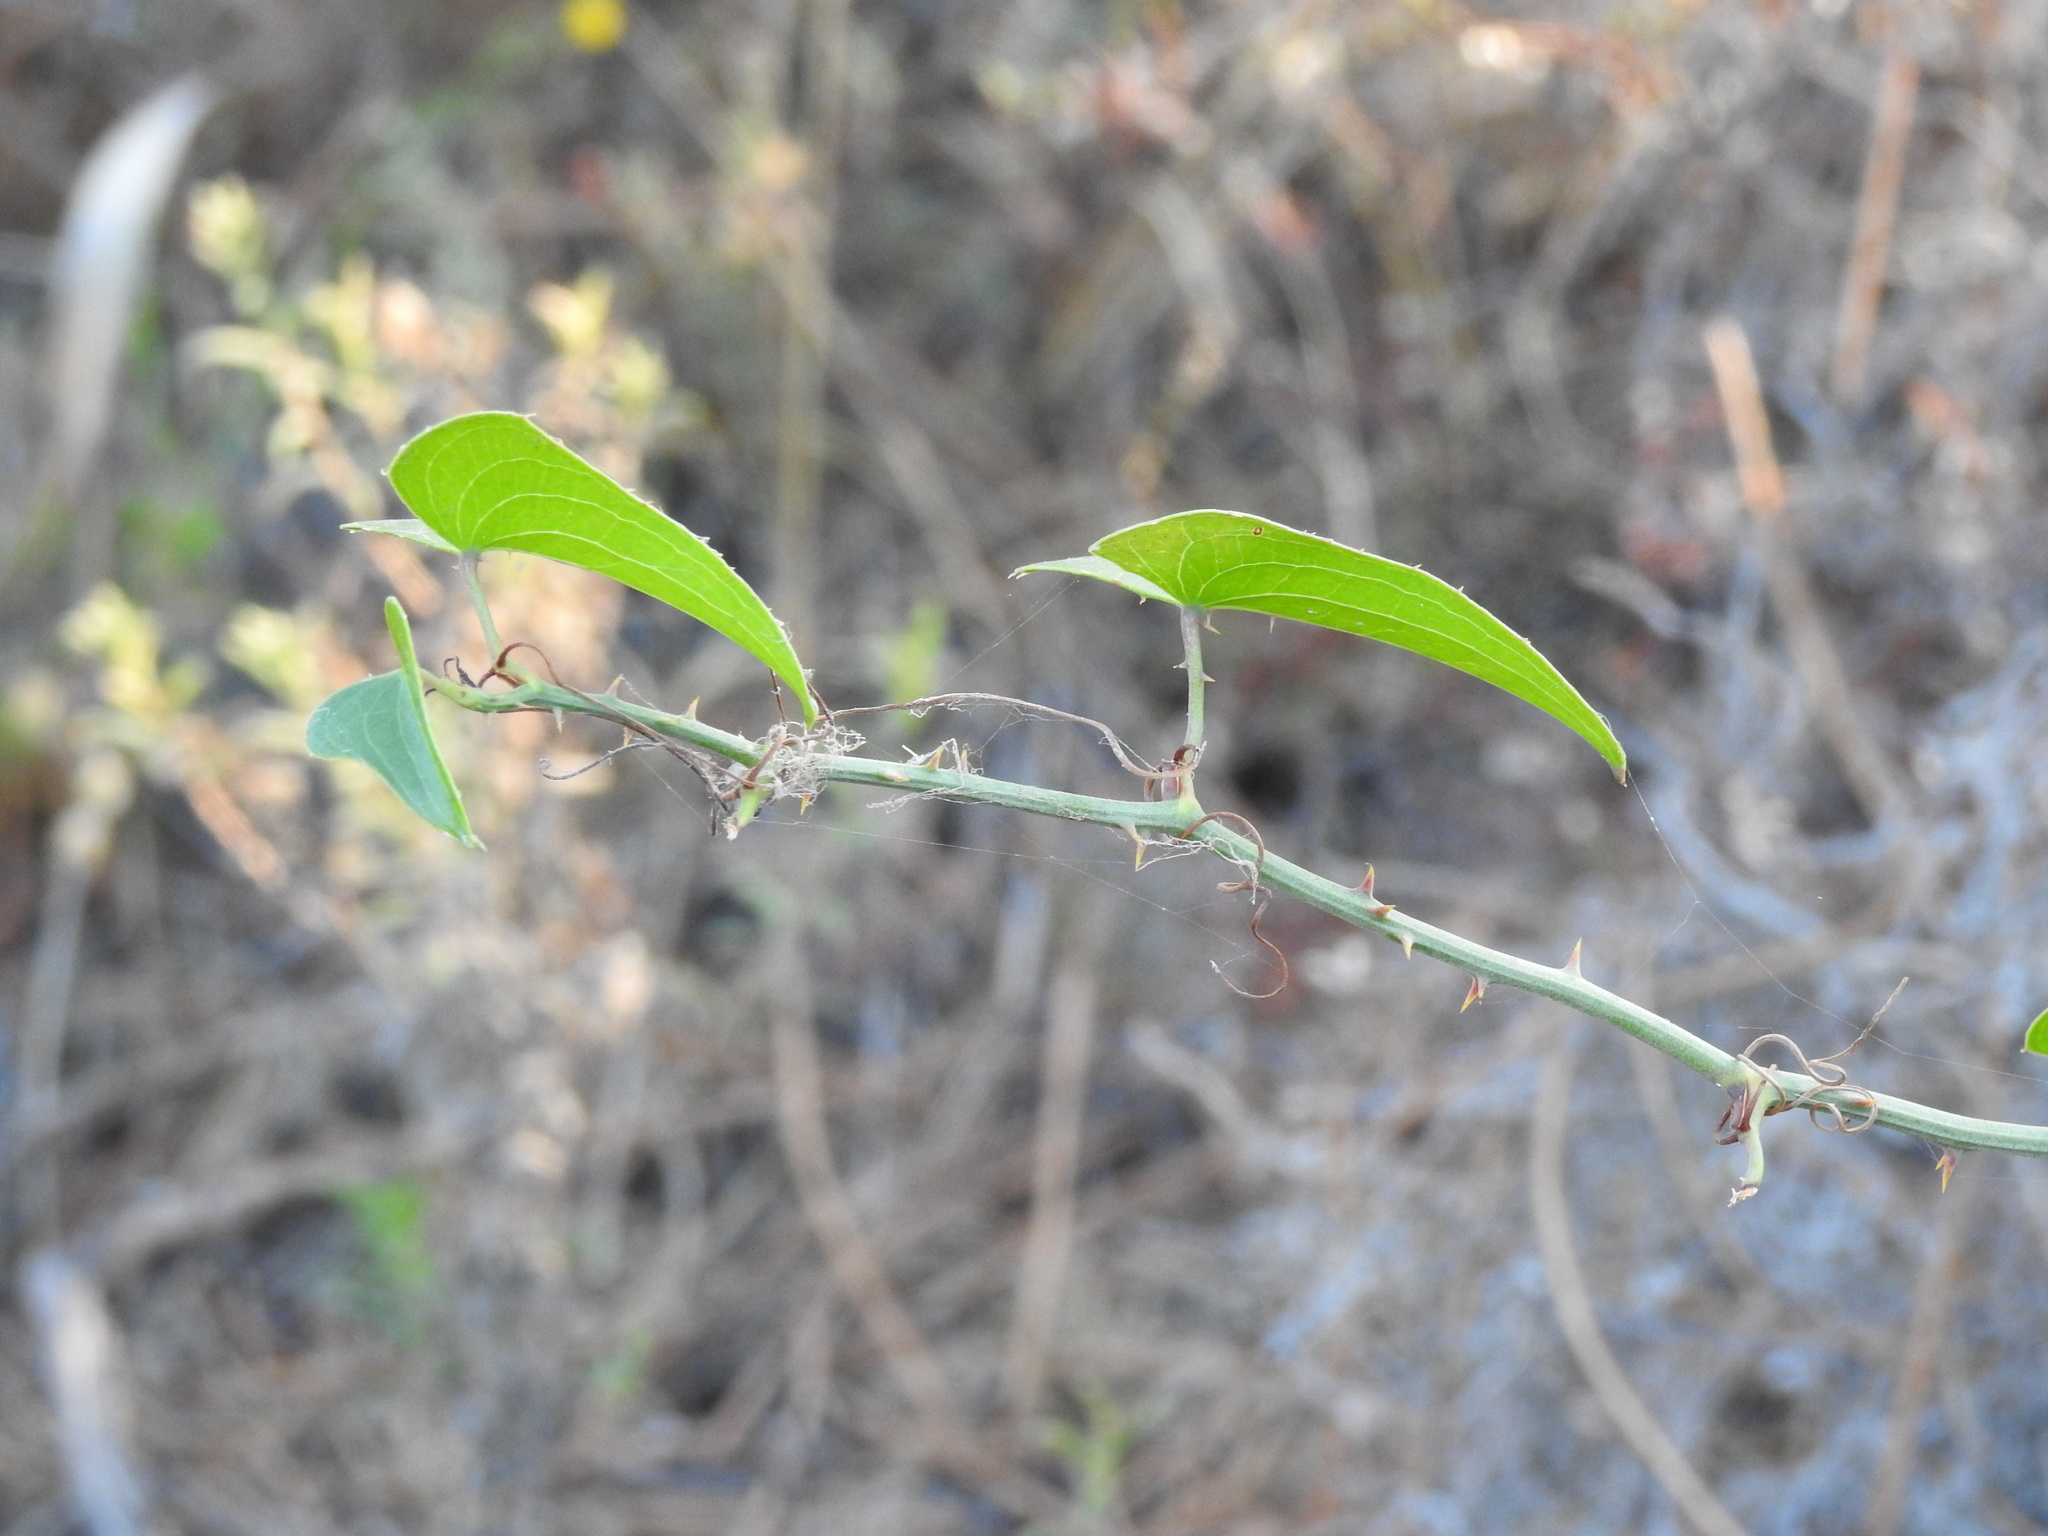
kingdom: Plantae
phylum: Tracheophyta
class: Liliopsida
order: Liliales
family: Smilacaceae
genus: Smilax
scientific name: Smilax aspera
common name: Common smilax
